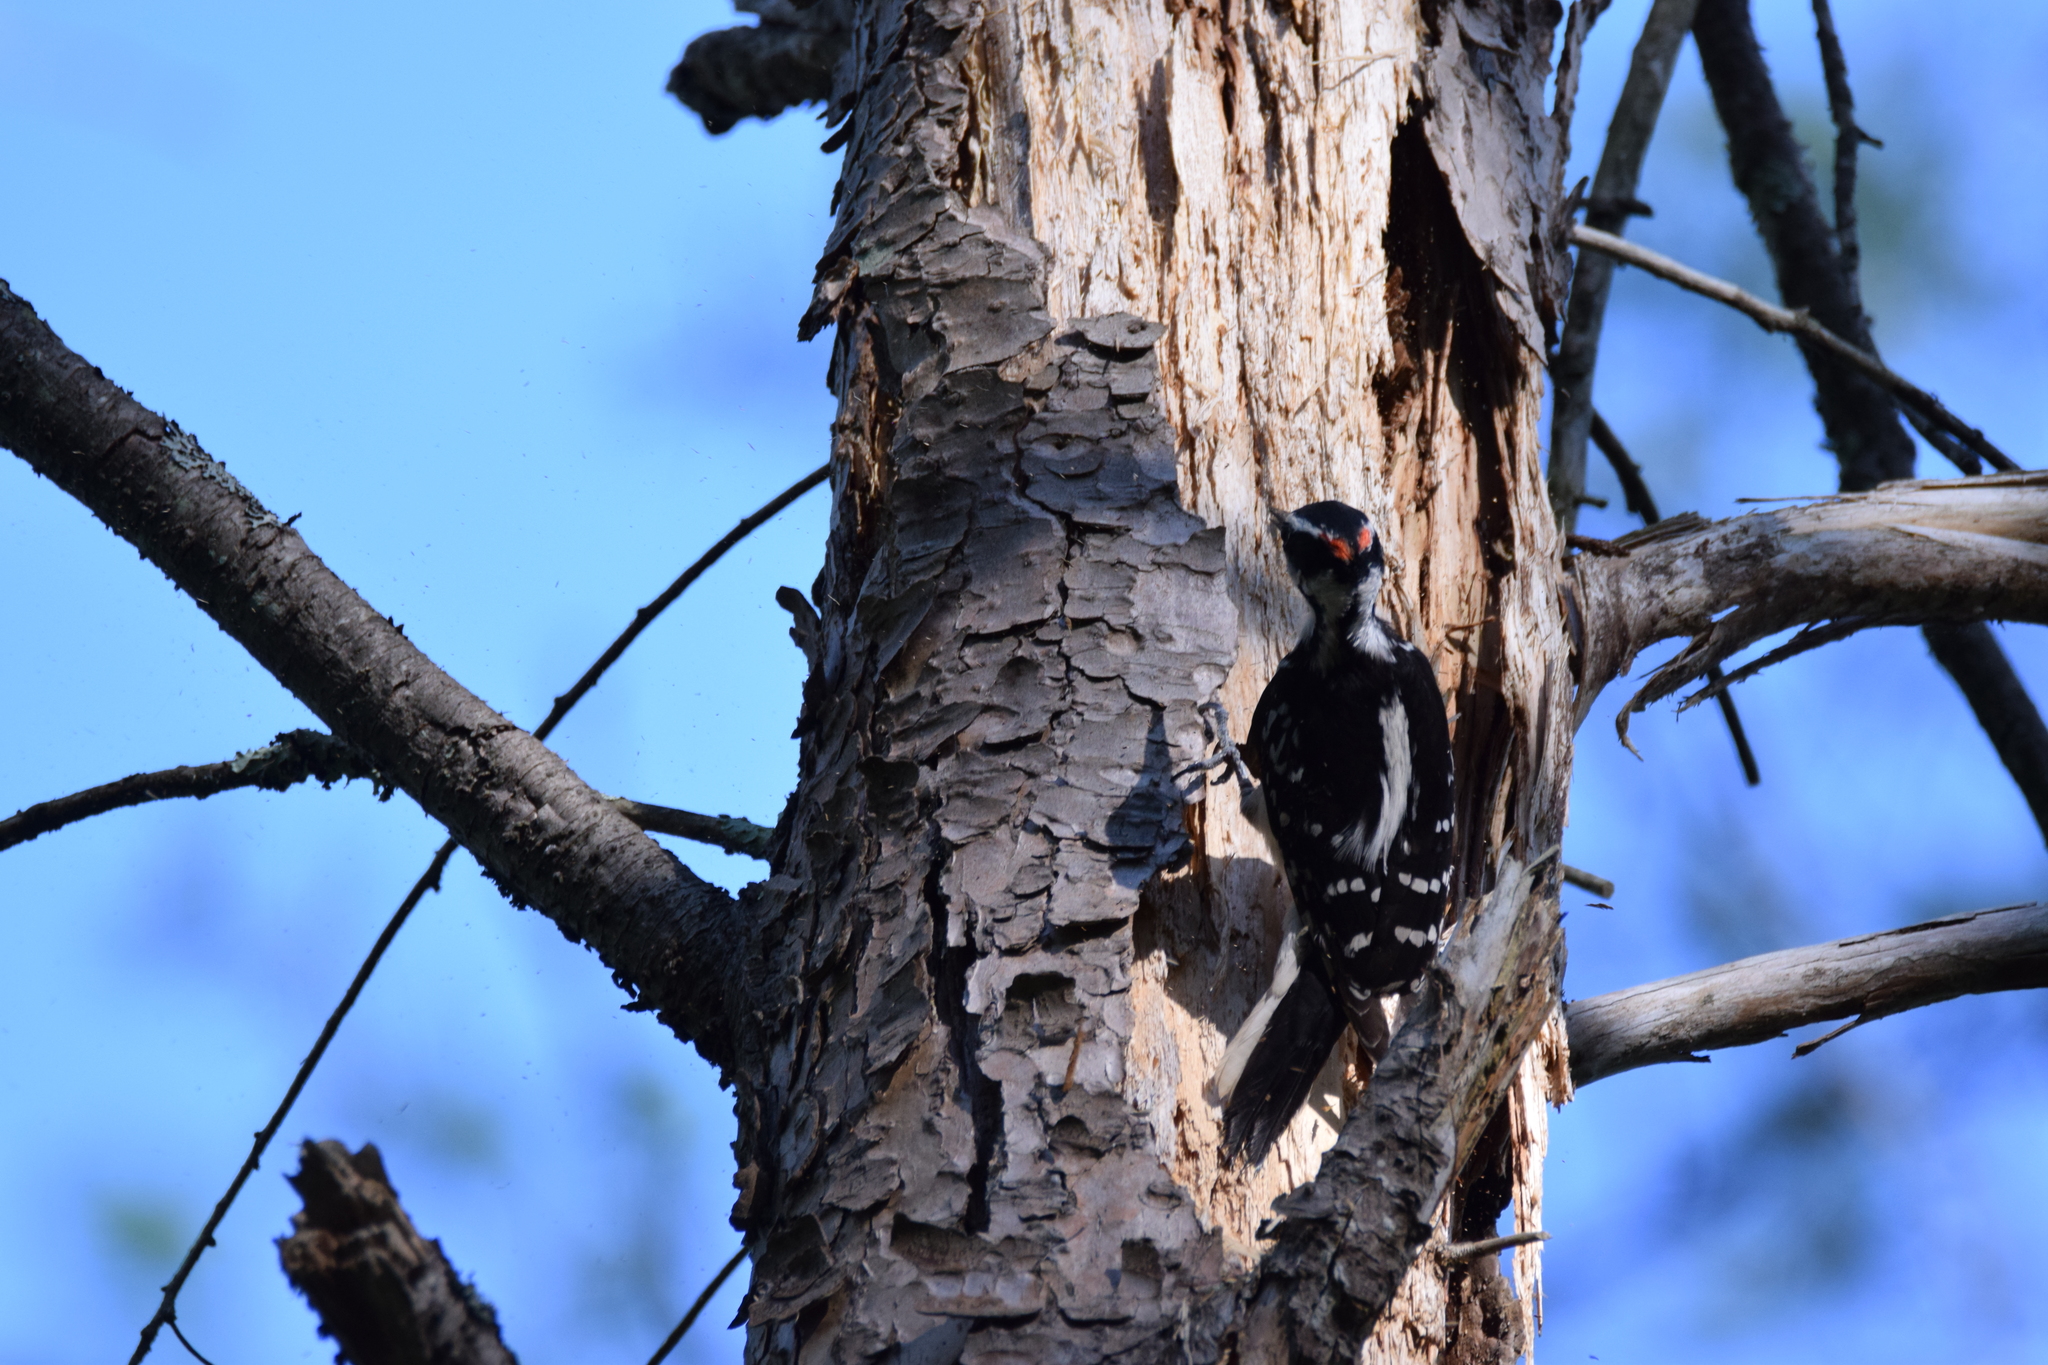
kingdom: Animalia
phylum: Chordata
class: Aves
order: Piciformes
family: Picidae
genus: Leuconotopicus
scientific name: Leuconotopicus villosus
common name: Hairy woodpecker
